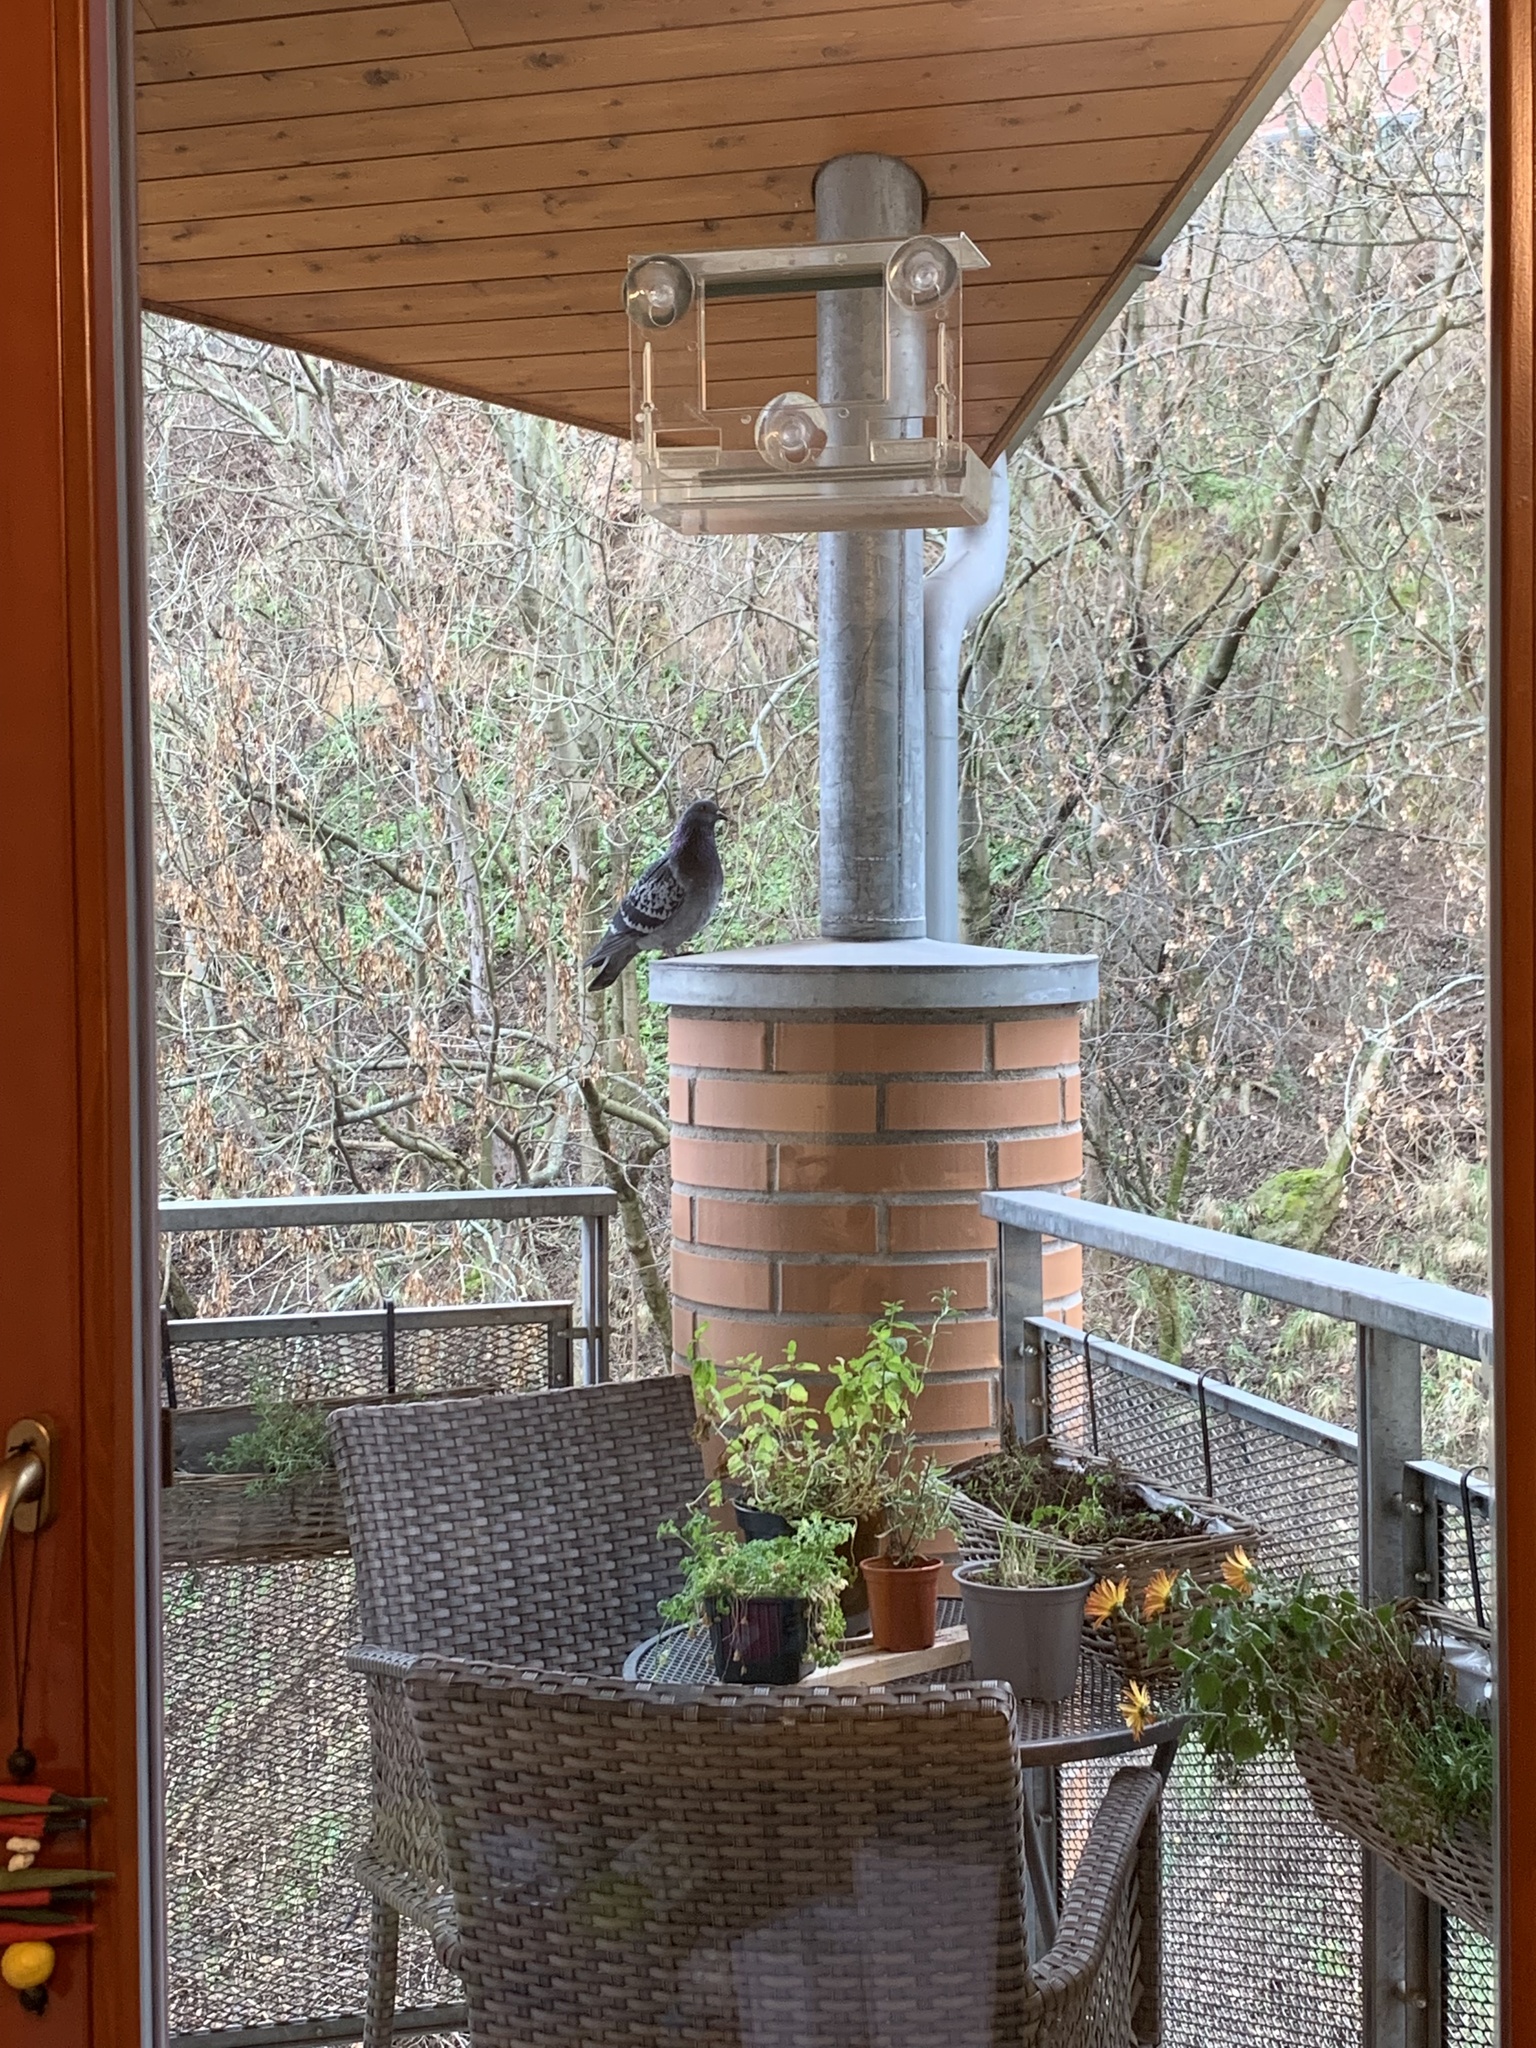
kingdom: Animalia
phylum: Chordata
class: Aves
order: Columbiformes
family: Columbidae
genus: Columba
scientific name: Columba livia
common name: Rock pigeon
